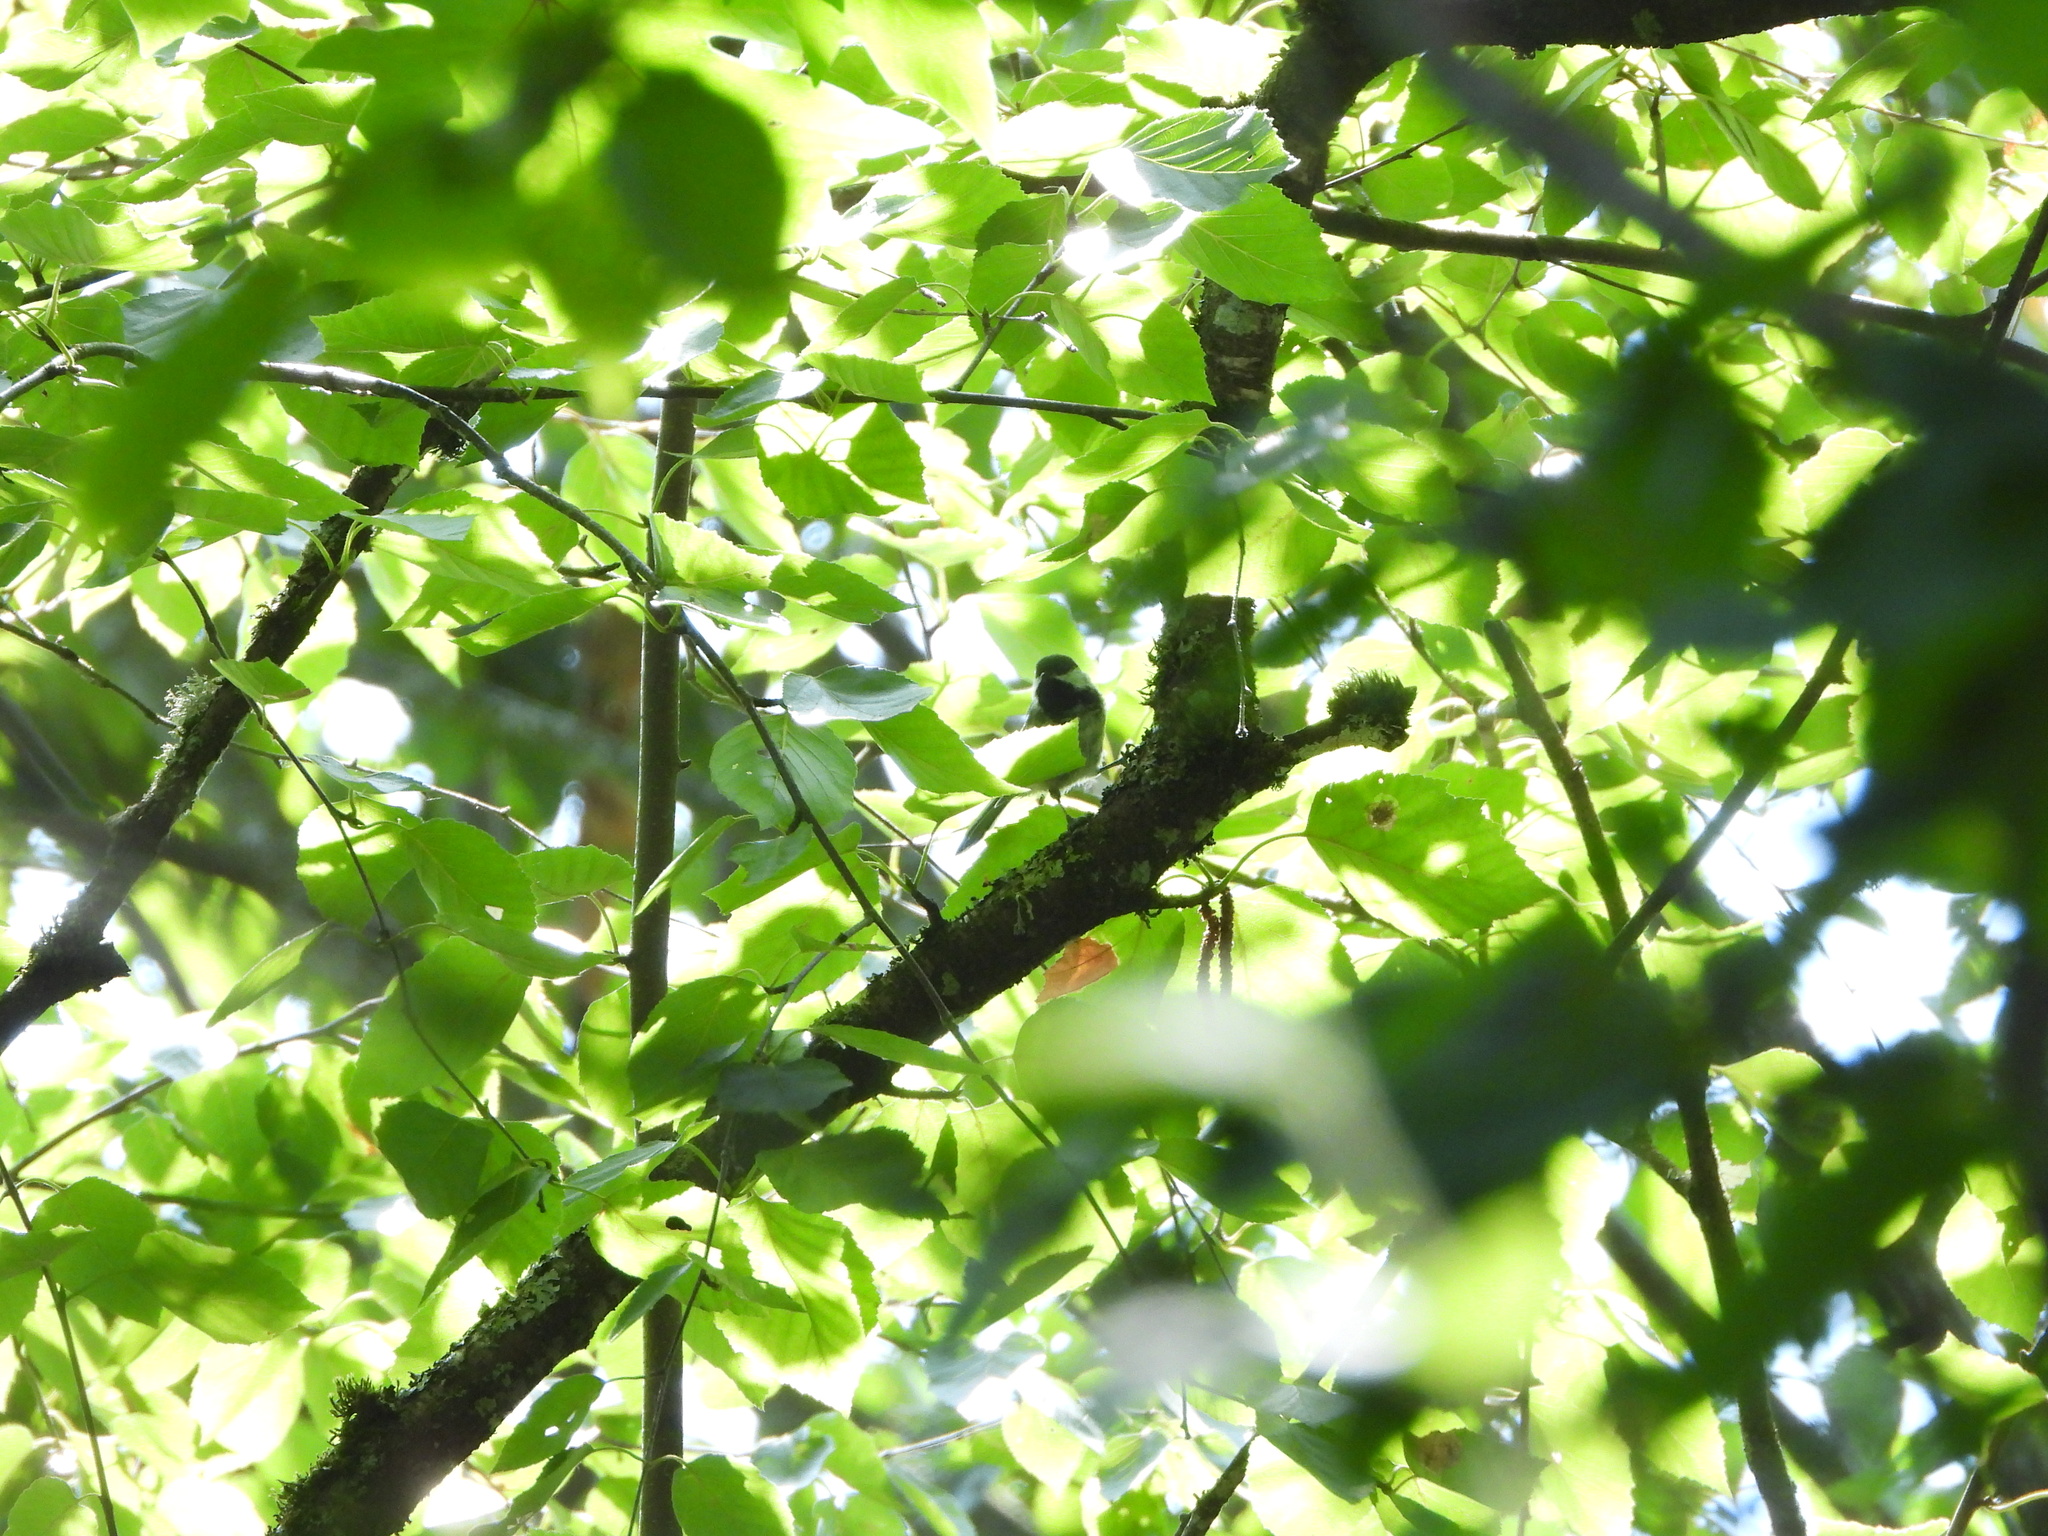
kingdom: Animalia
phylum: Chordata
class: Aves
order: Passeriformes
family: Paridae
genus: Poecile
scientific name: Poecile atricapillus
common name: Black-capped chickadee
